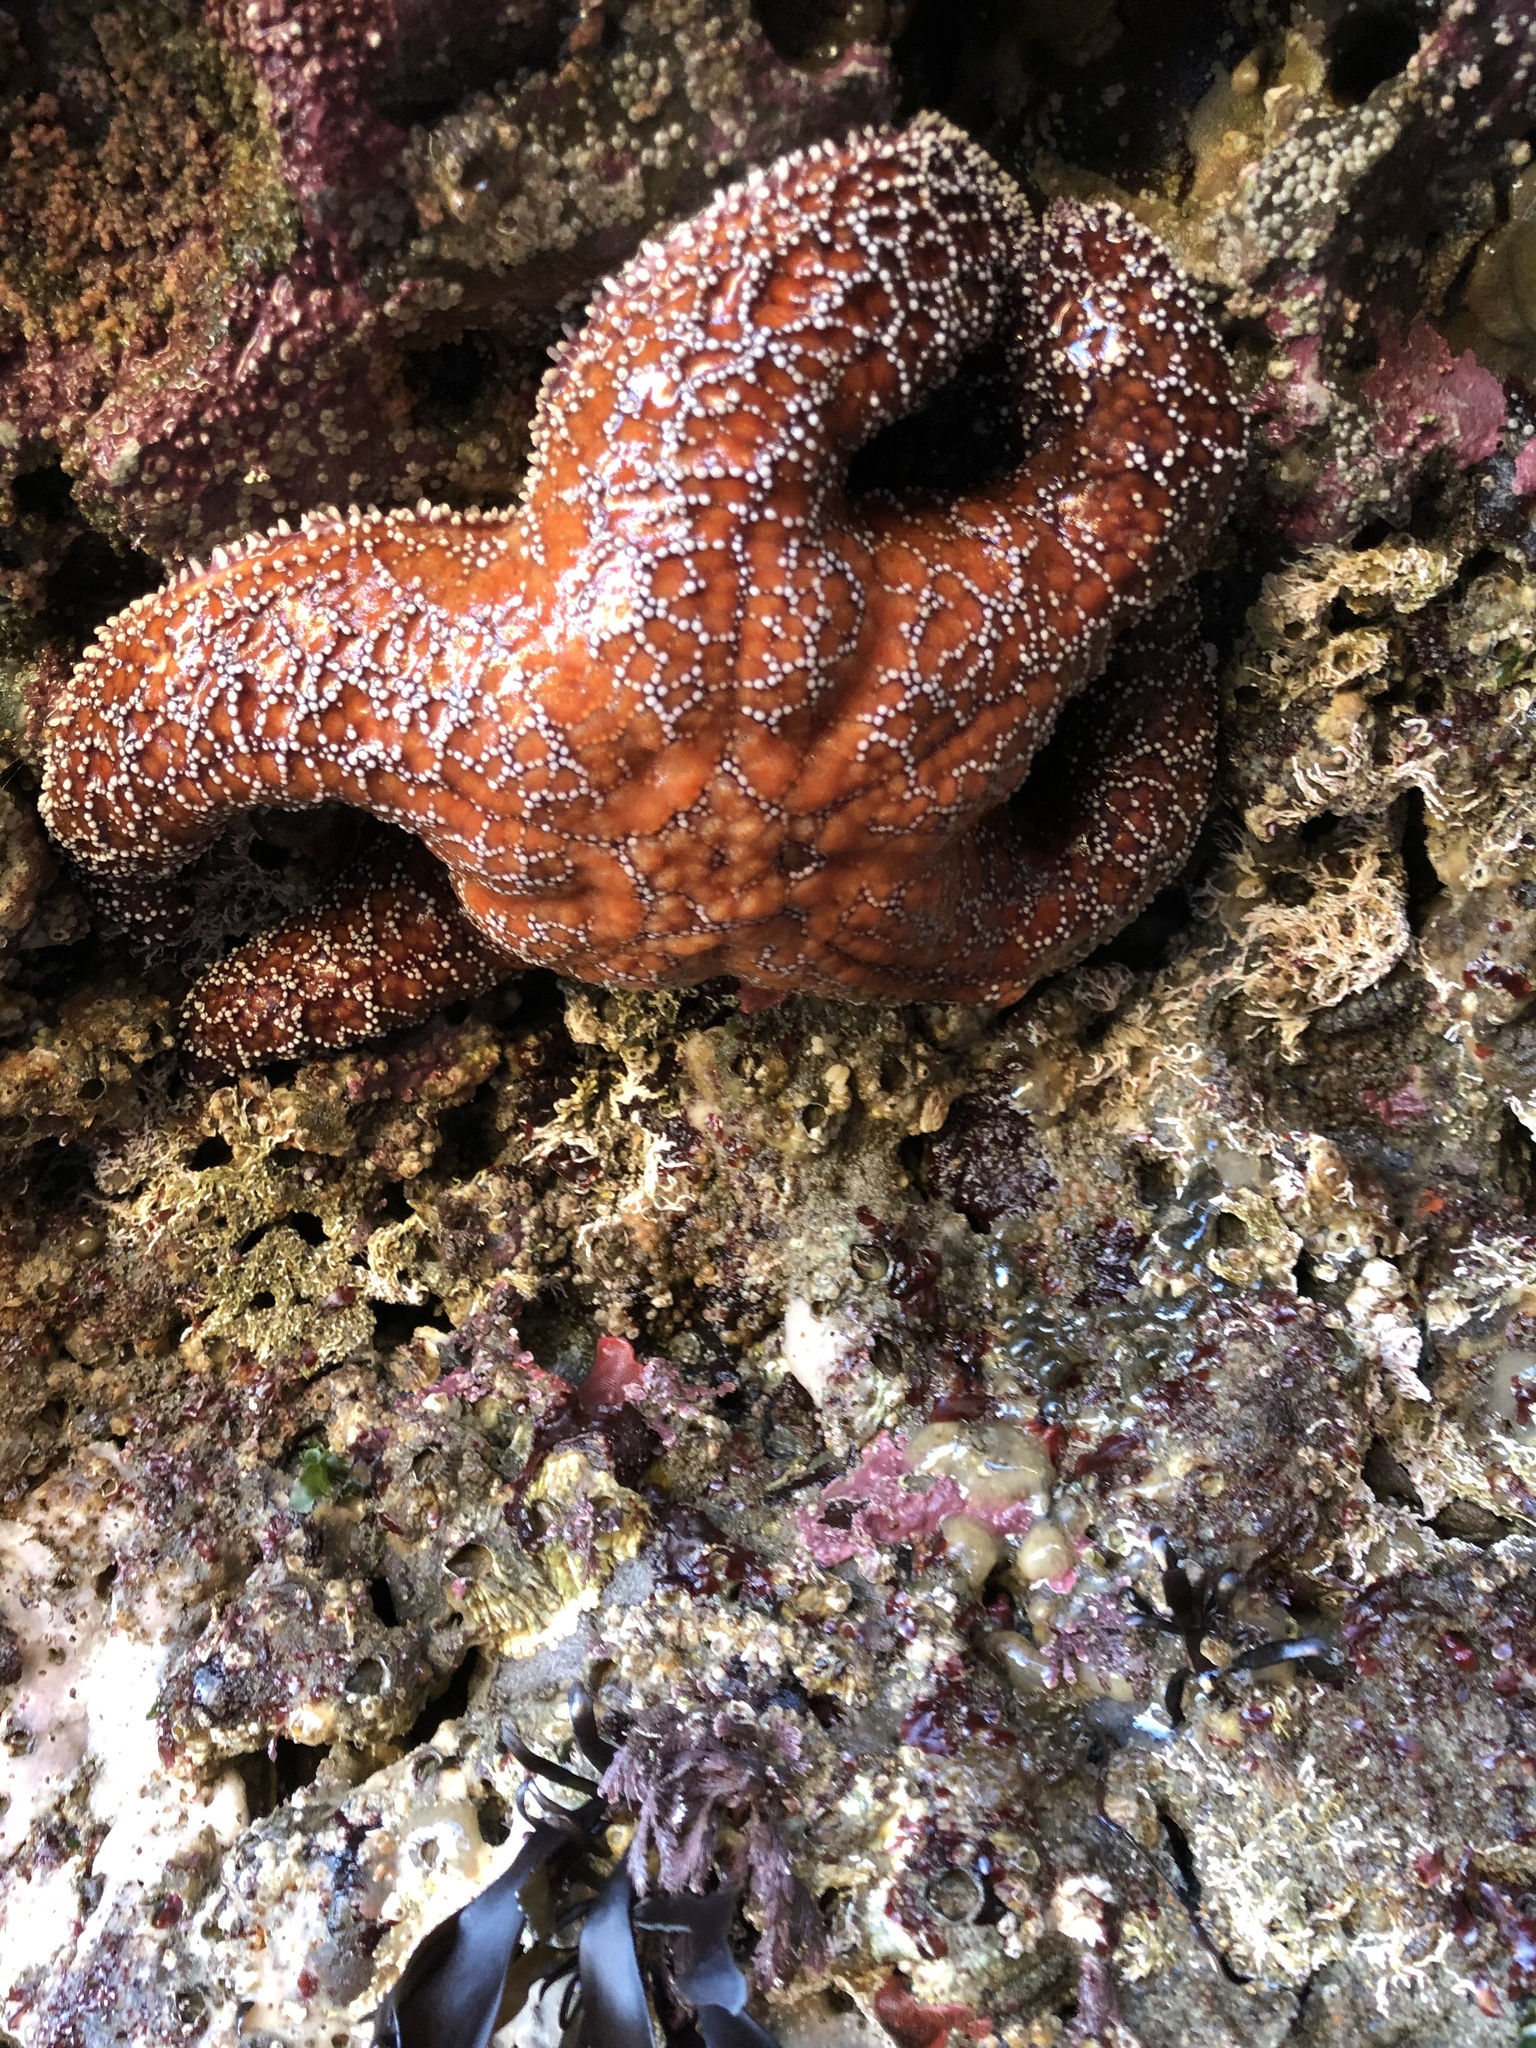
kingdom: Animalia
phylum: Echinodermata
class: Asteroidea
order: Forcipulatida
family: Asteriidae
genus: Pisaster
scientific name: Pisaster ochraceus
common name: Ochre stars
